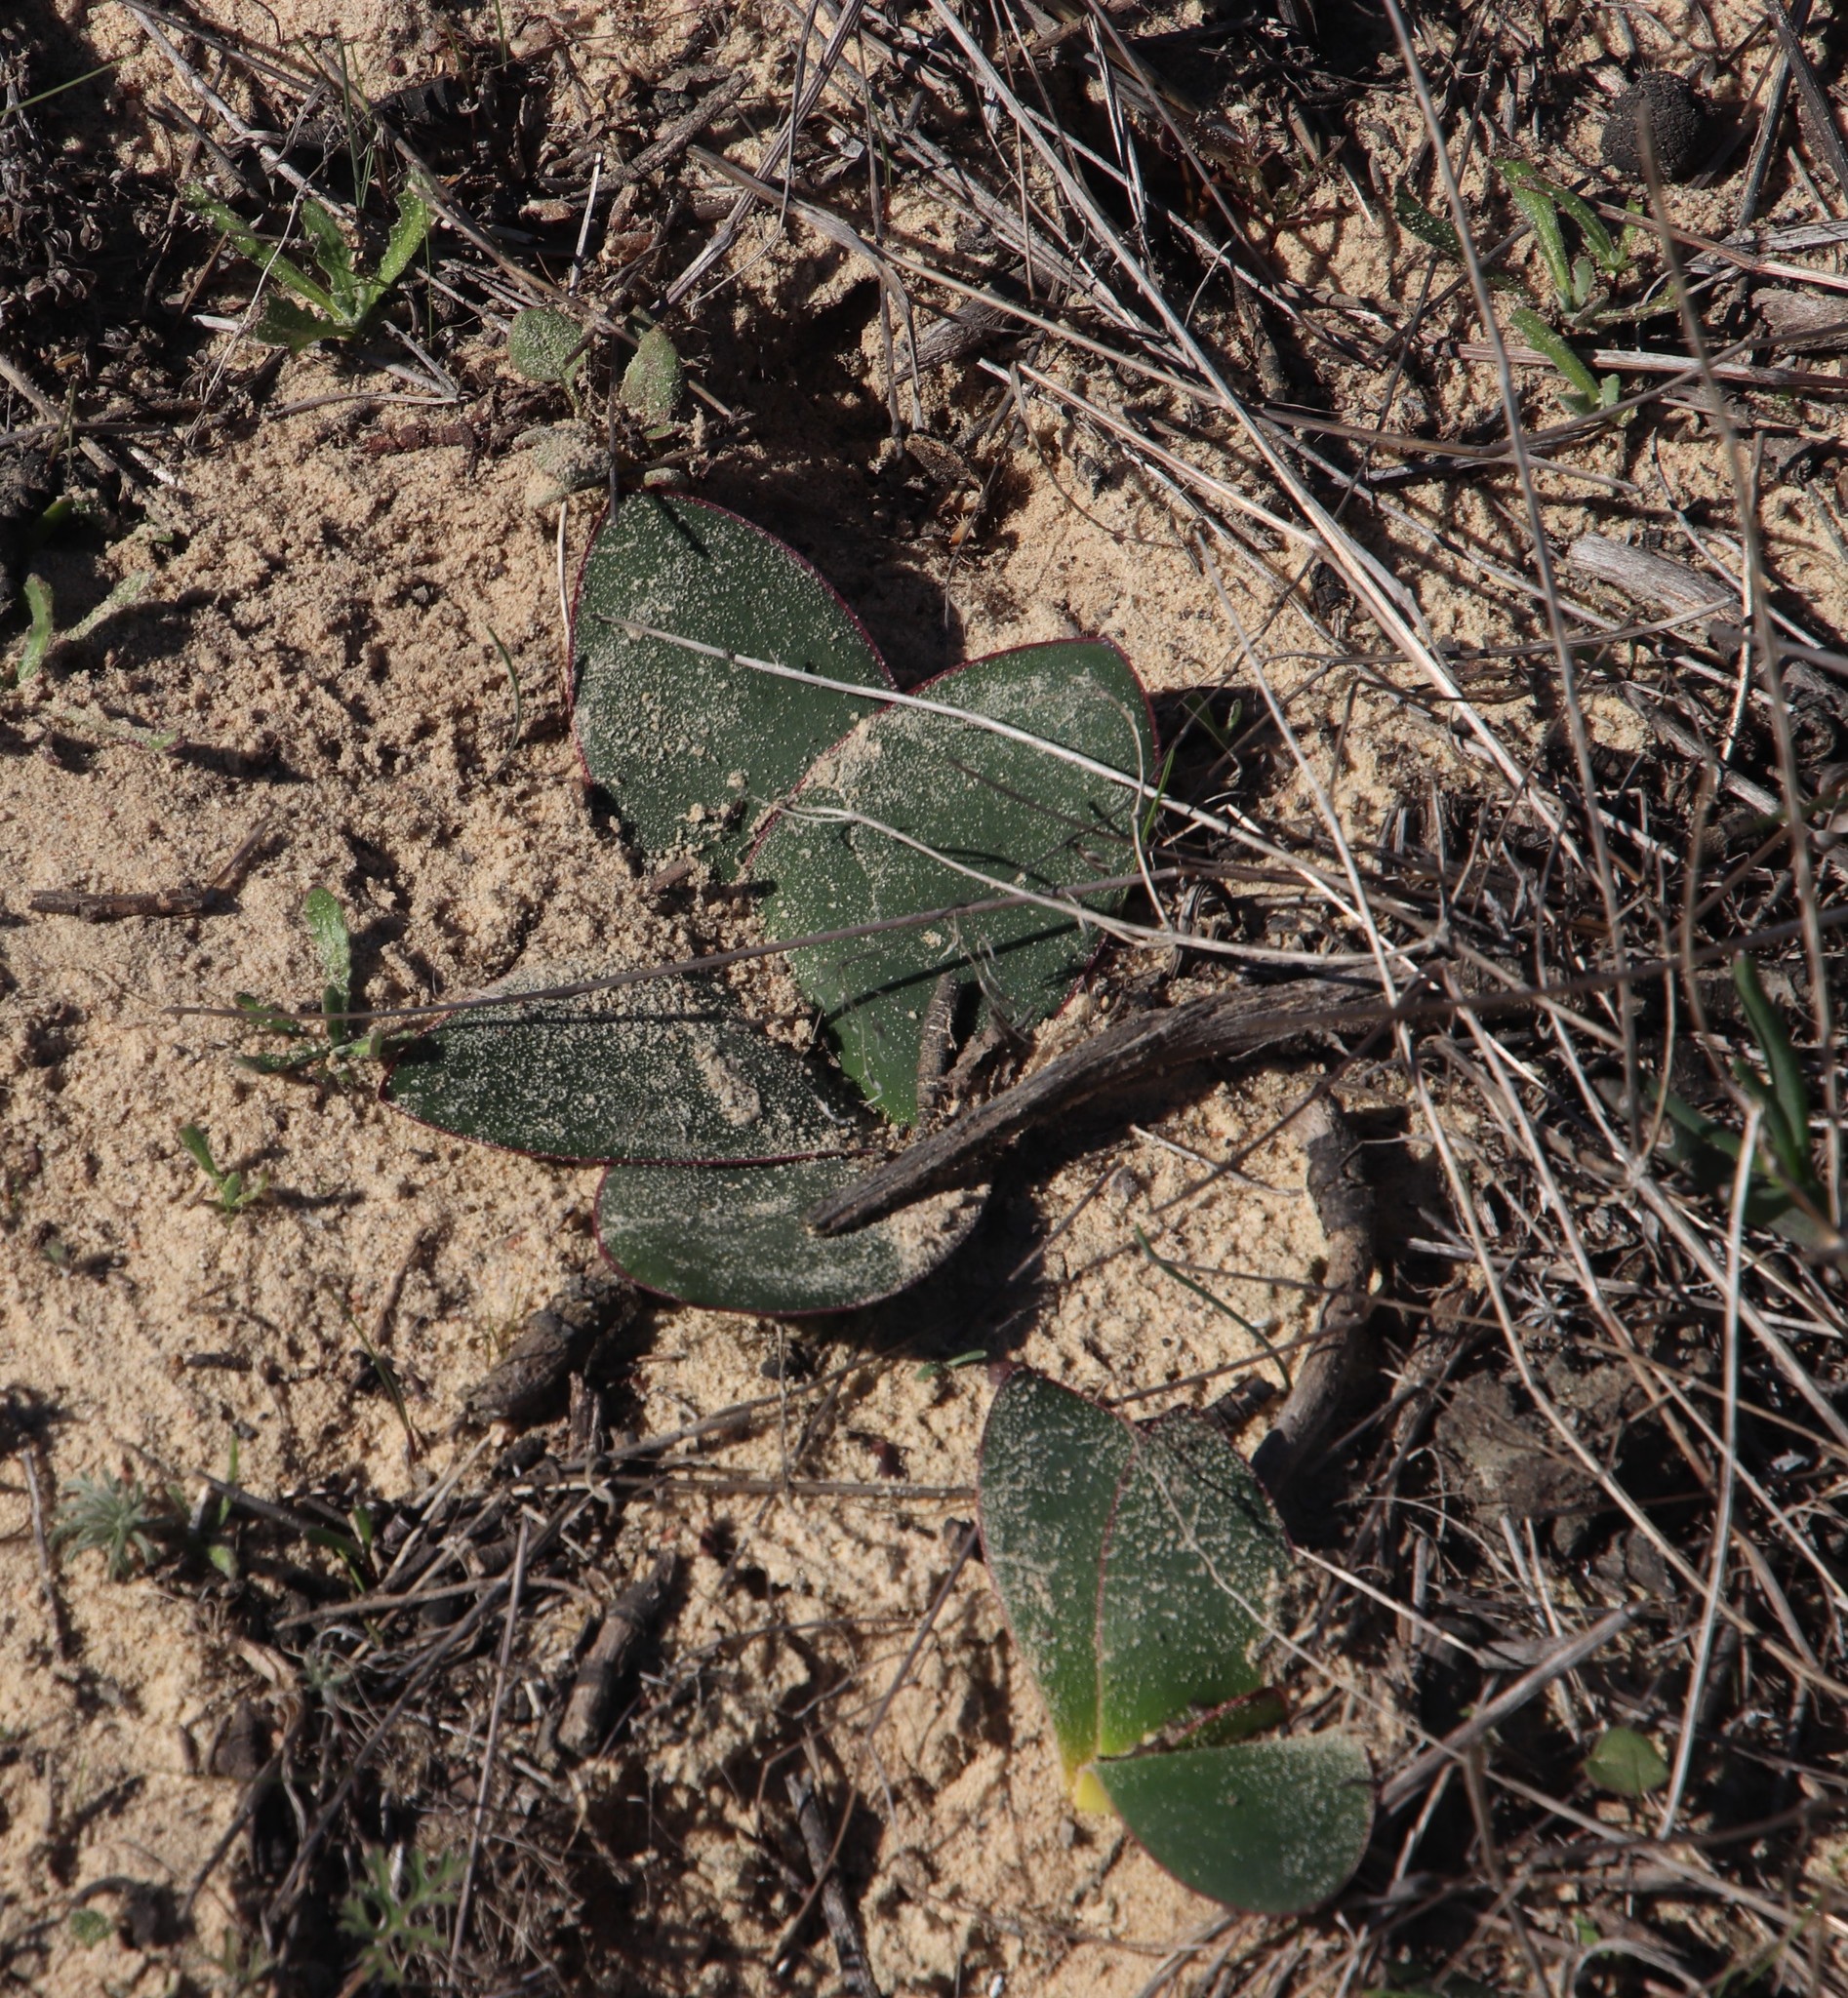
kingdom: Plantae
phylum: Tracheophyta
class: Liliopsida
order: Asparagales
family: Amaryllidaceae
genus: Brunsvigia
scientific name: Brunsvigia orientalis
